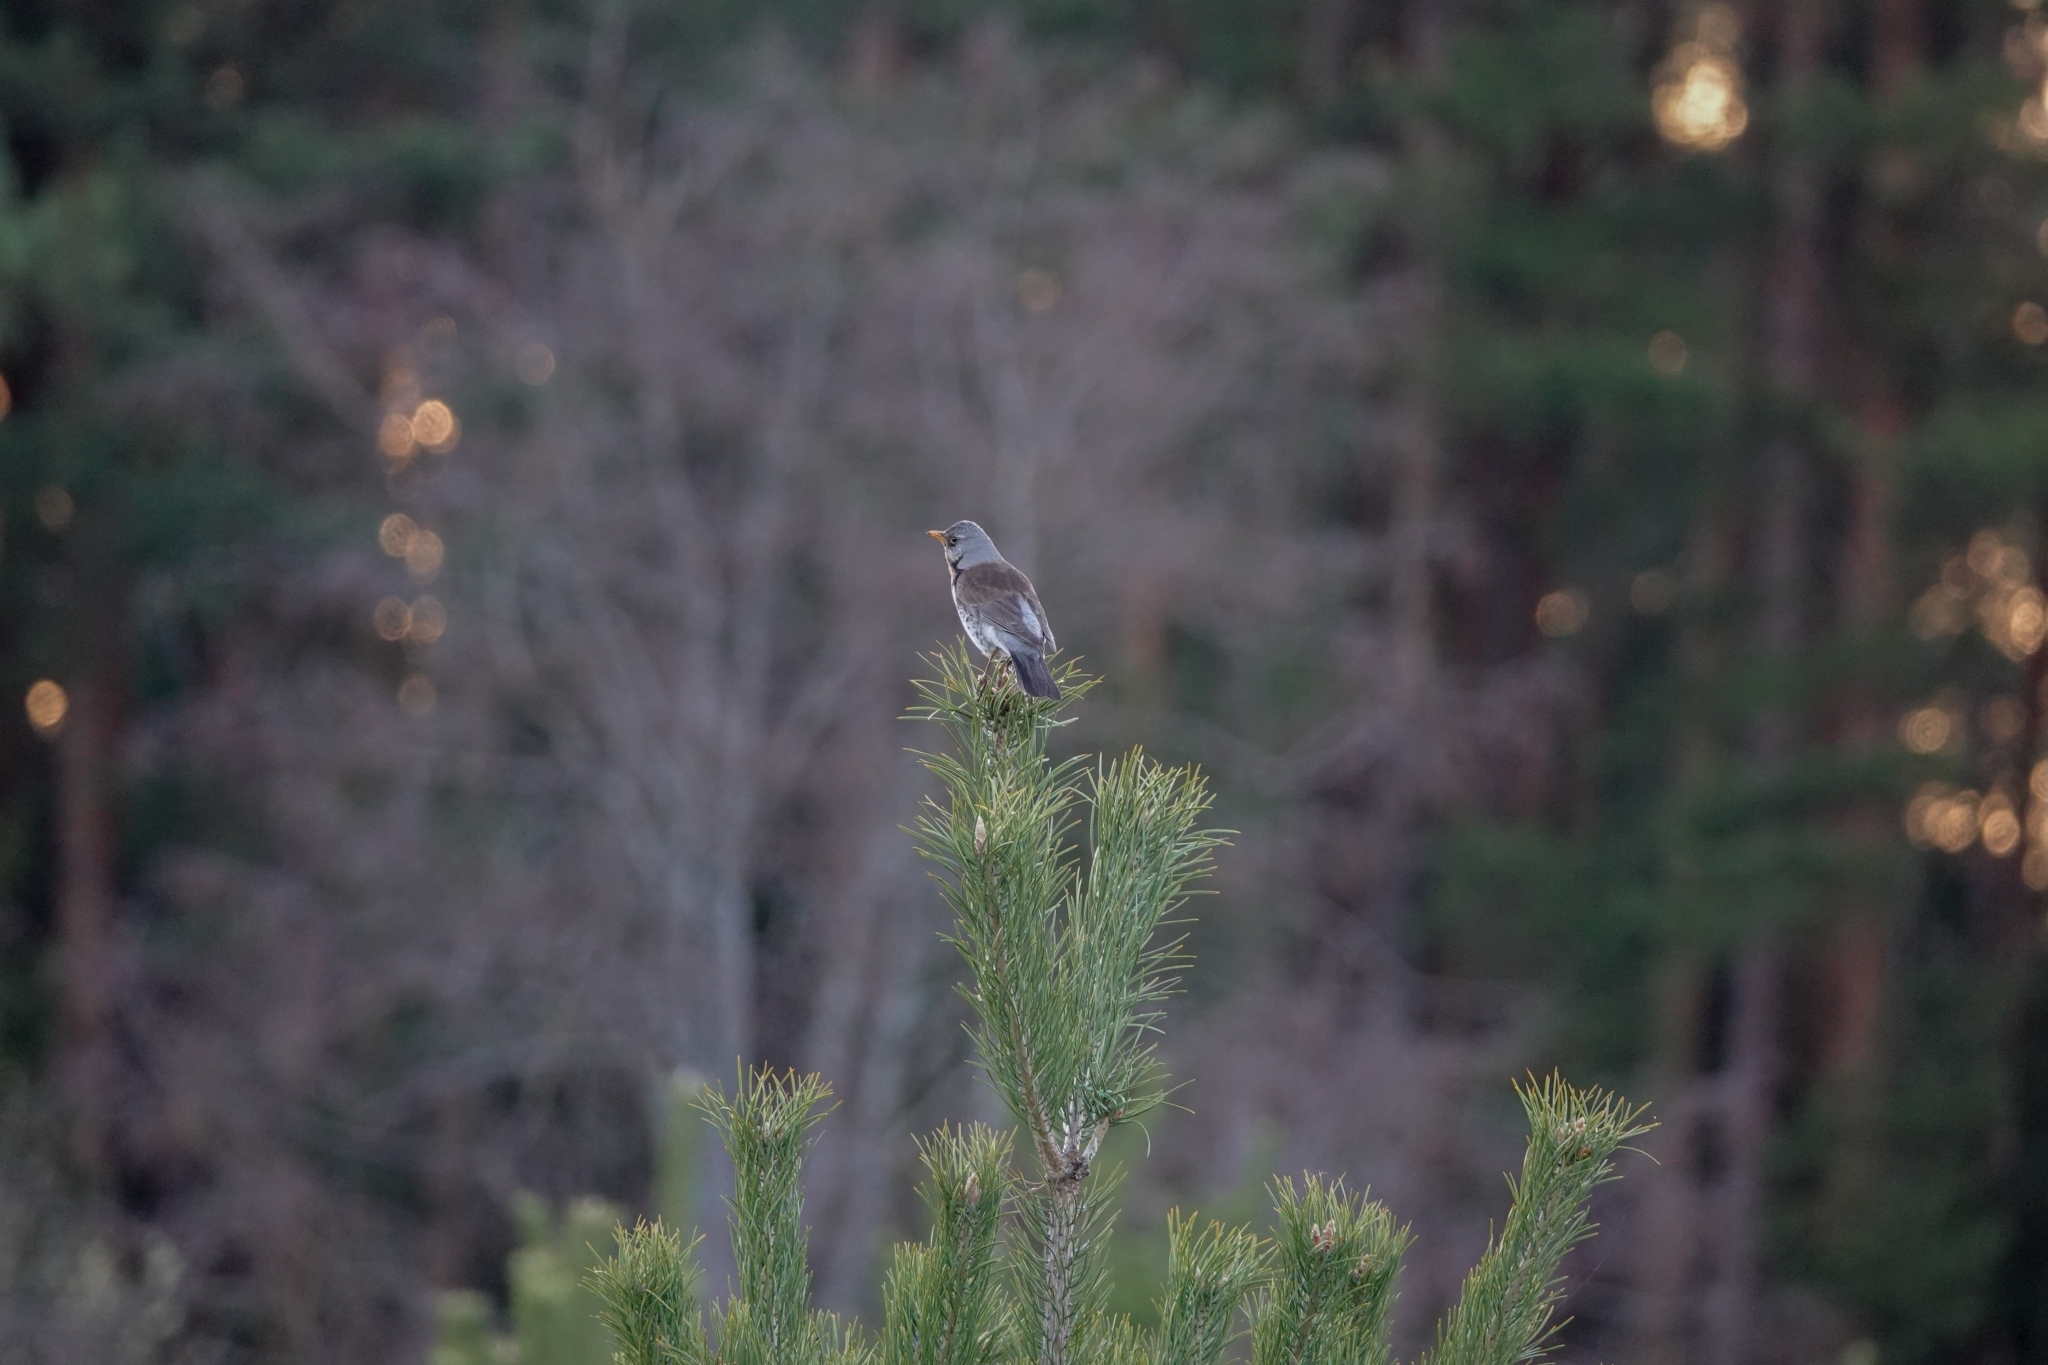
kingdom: Animalia
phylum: Chordata
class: Aves
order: Passeriformes
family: Turdidae
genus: Turdus
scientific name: Turdus pilaris
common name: Fieldfare
